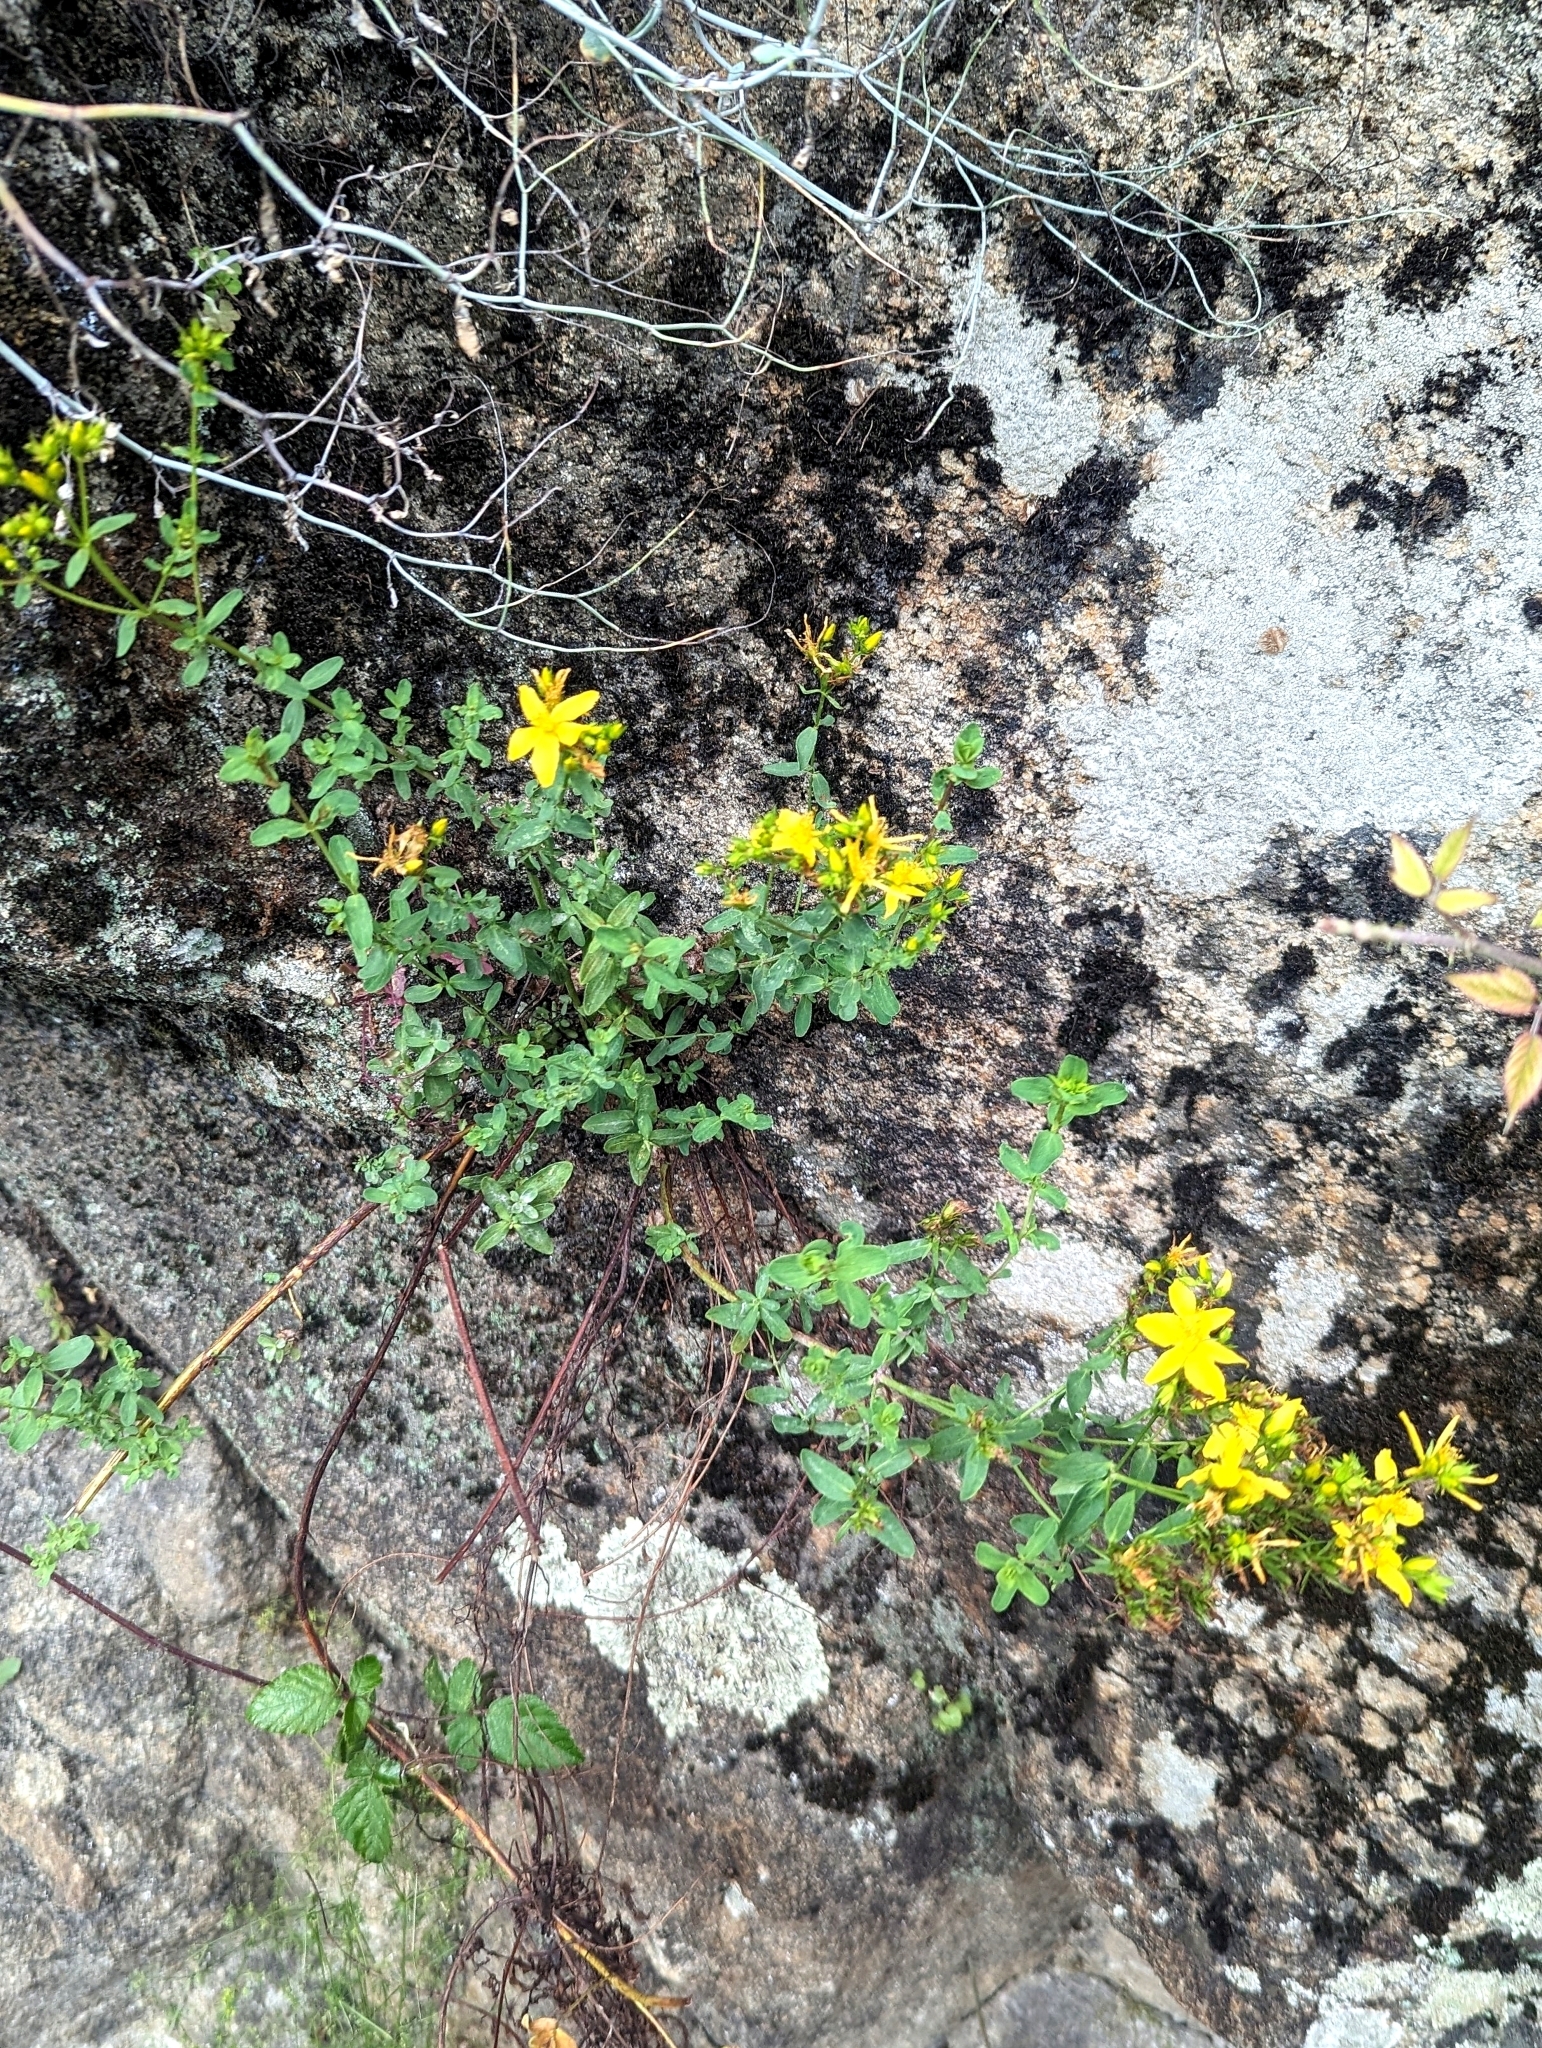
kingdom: Plantae
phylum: Tracheophyta
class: Magnoliopsida
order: Malpighiales
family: Hypericaceae
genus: Hypericum
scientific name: Hypericum perforatum
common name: Common st. johnswort
